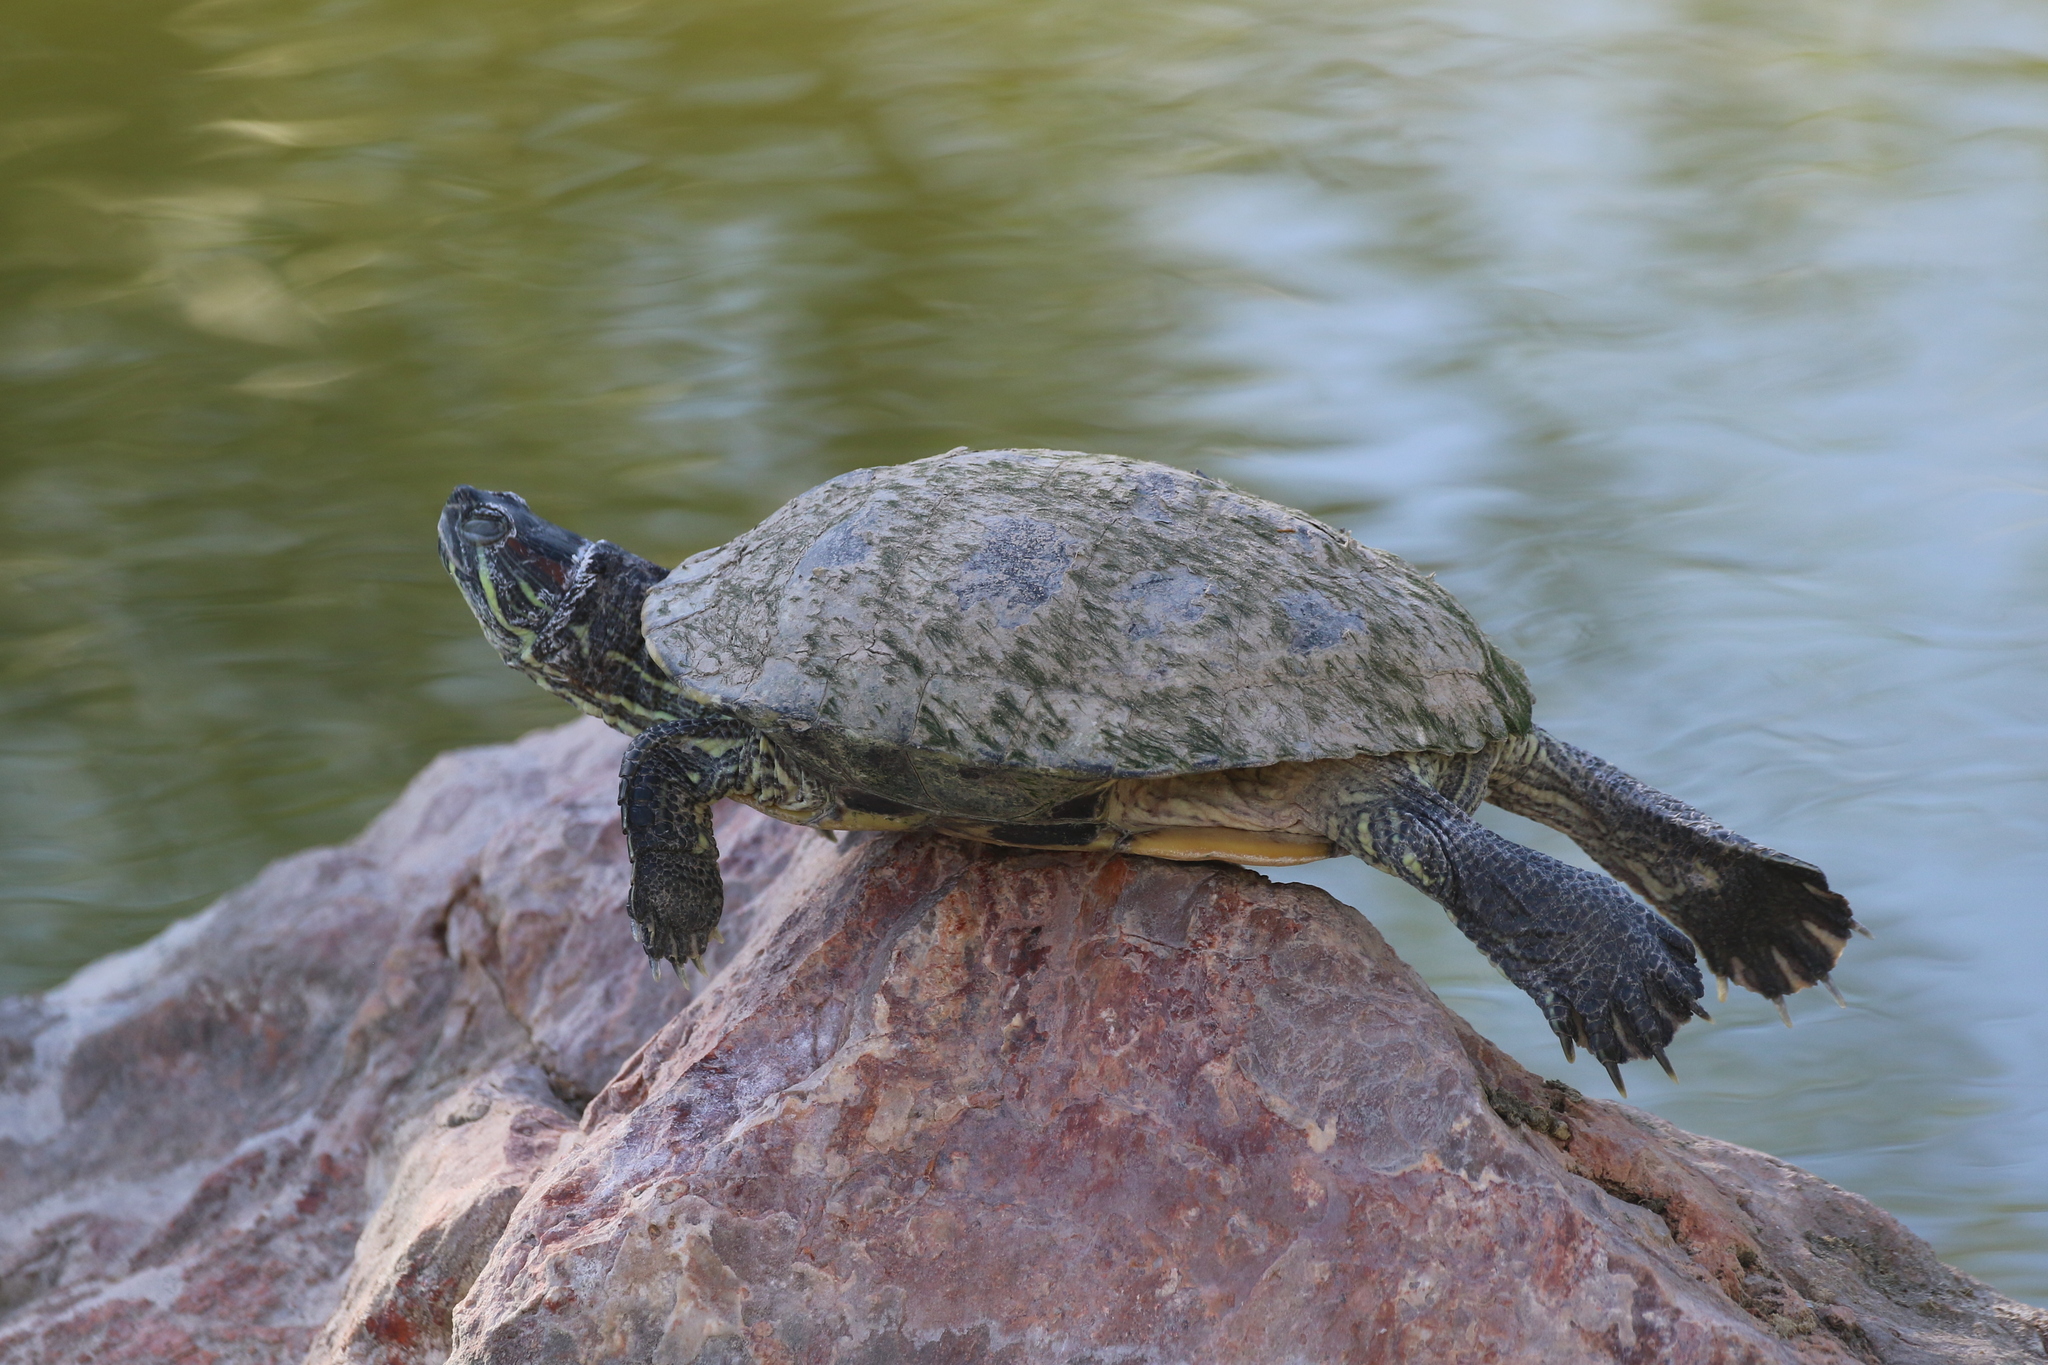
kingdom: Animalia
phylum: Chordata
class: Testudines
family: Emydidae
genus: Trachemys
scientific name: Trachemys scripta
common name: Slider
